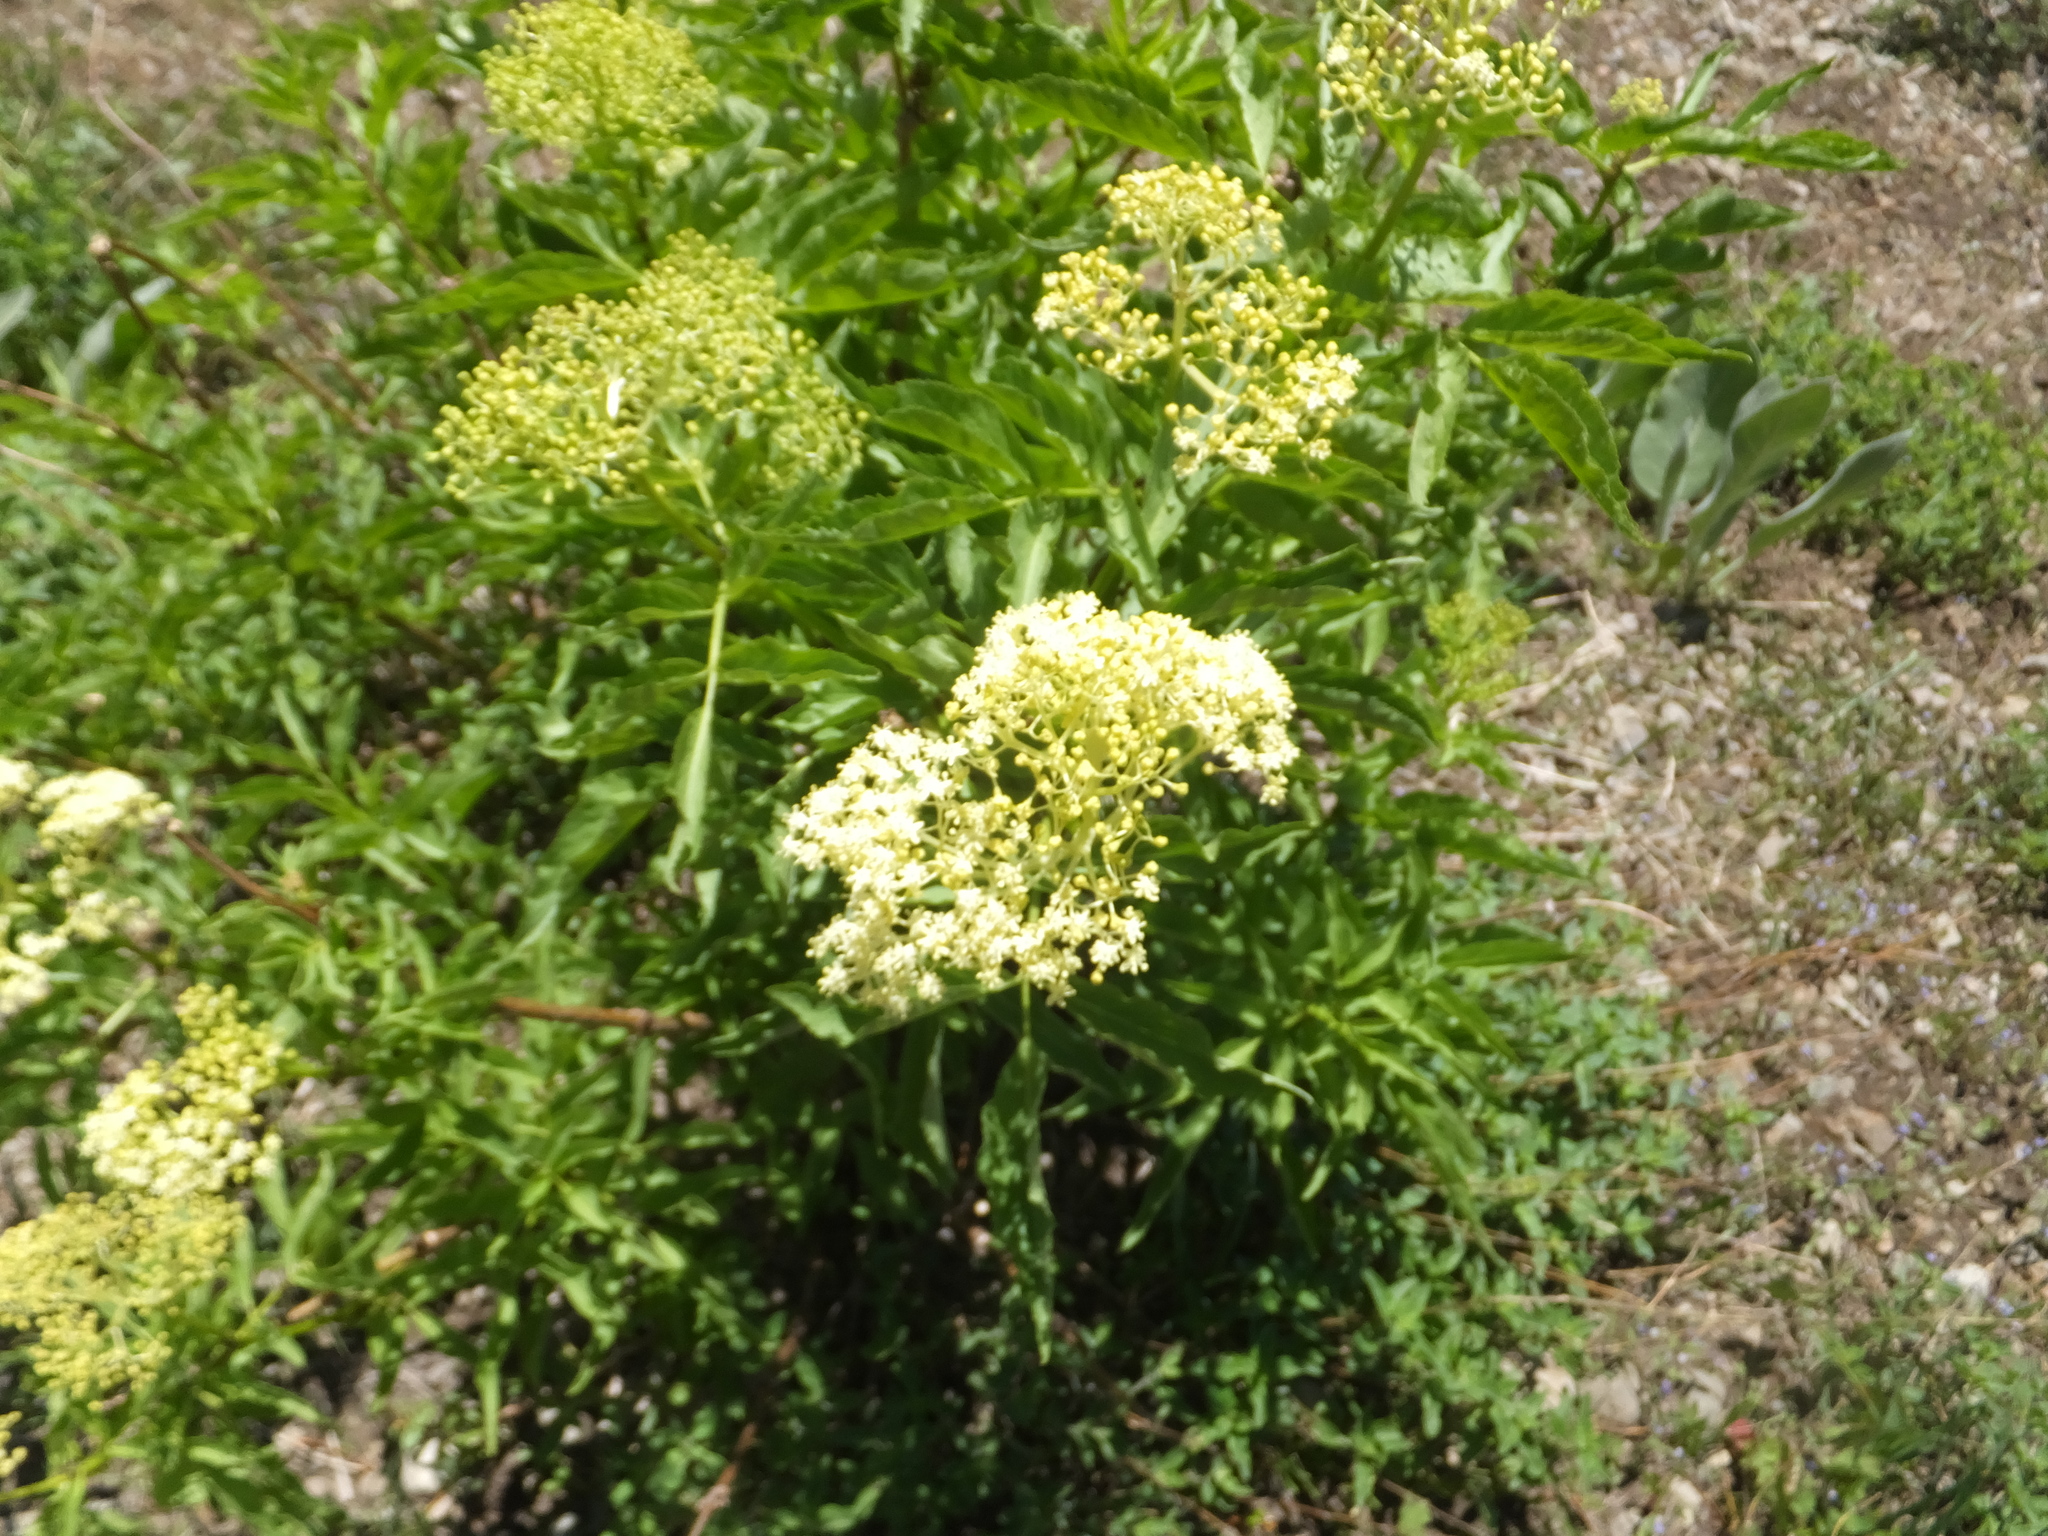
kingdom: Plantae
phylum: Tracheophyta
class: Magnoliopsida
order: Dipsacales
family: Viburnaceae
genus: Sambucus
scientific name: Sambucus racemosa
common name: Red-berried elder
